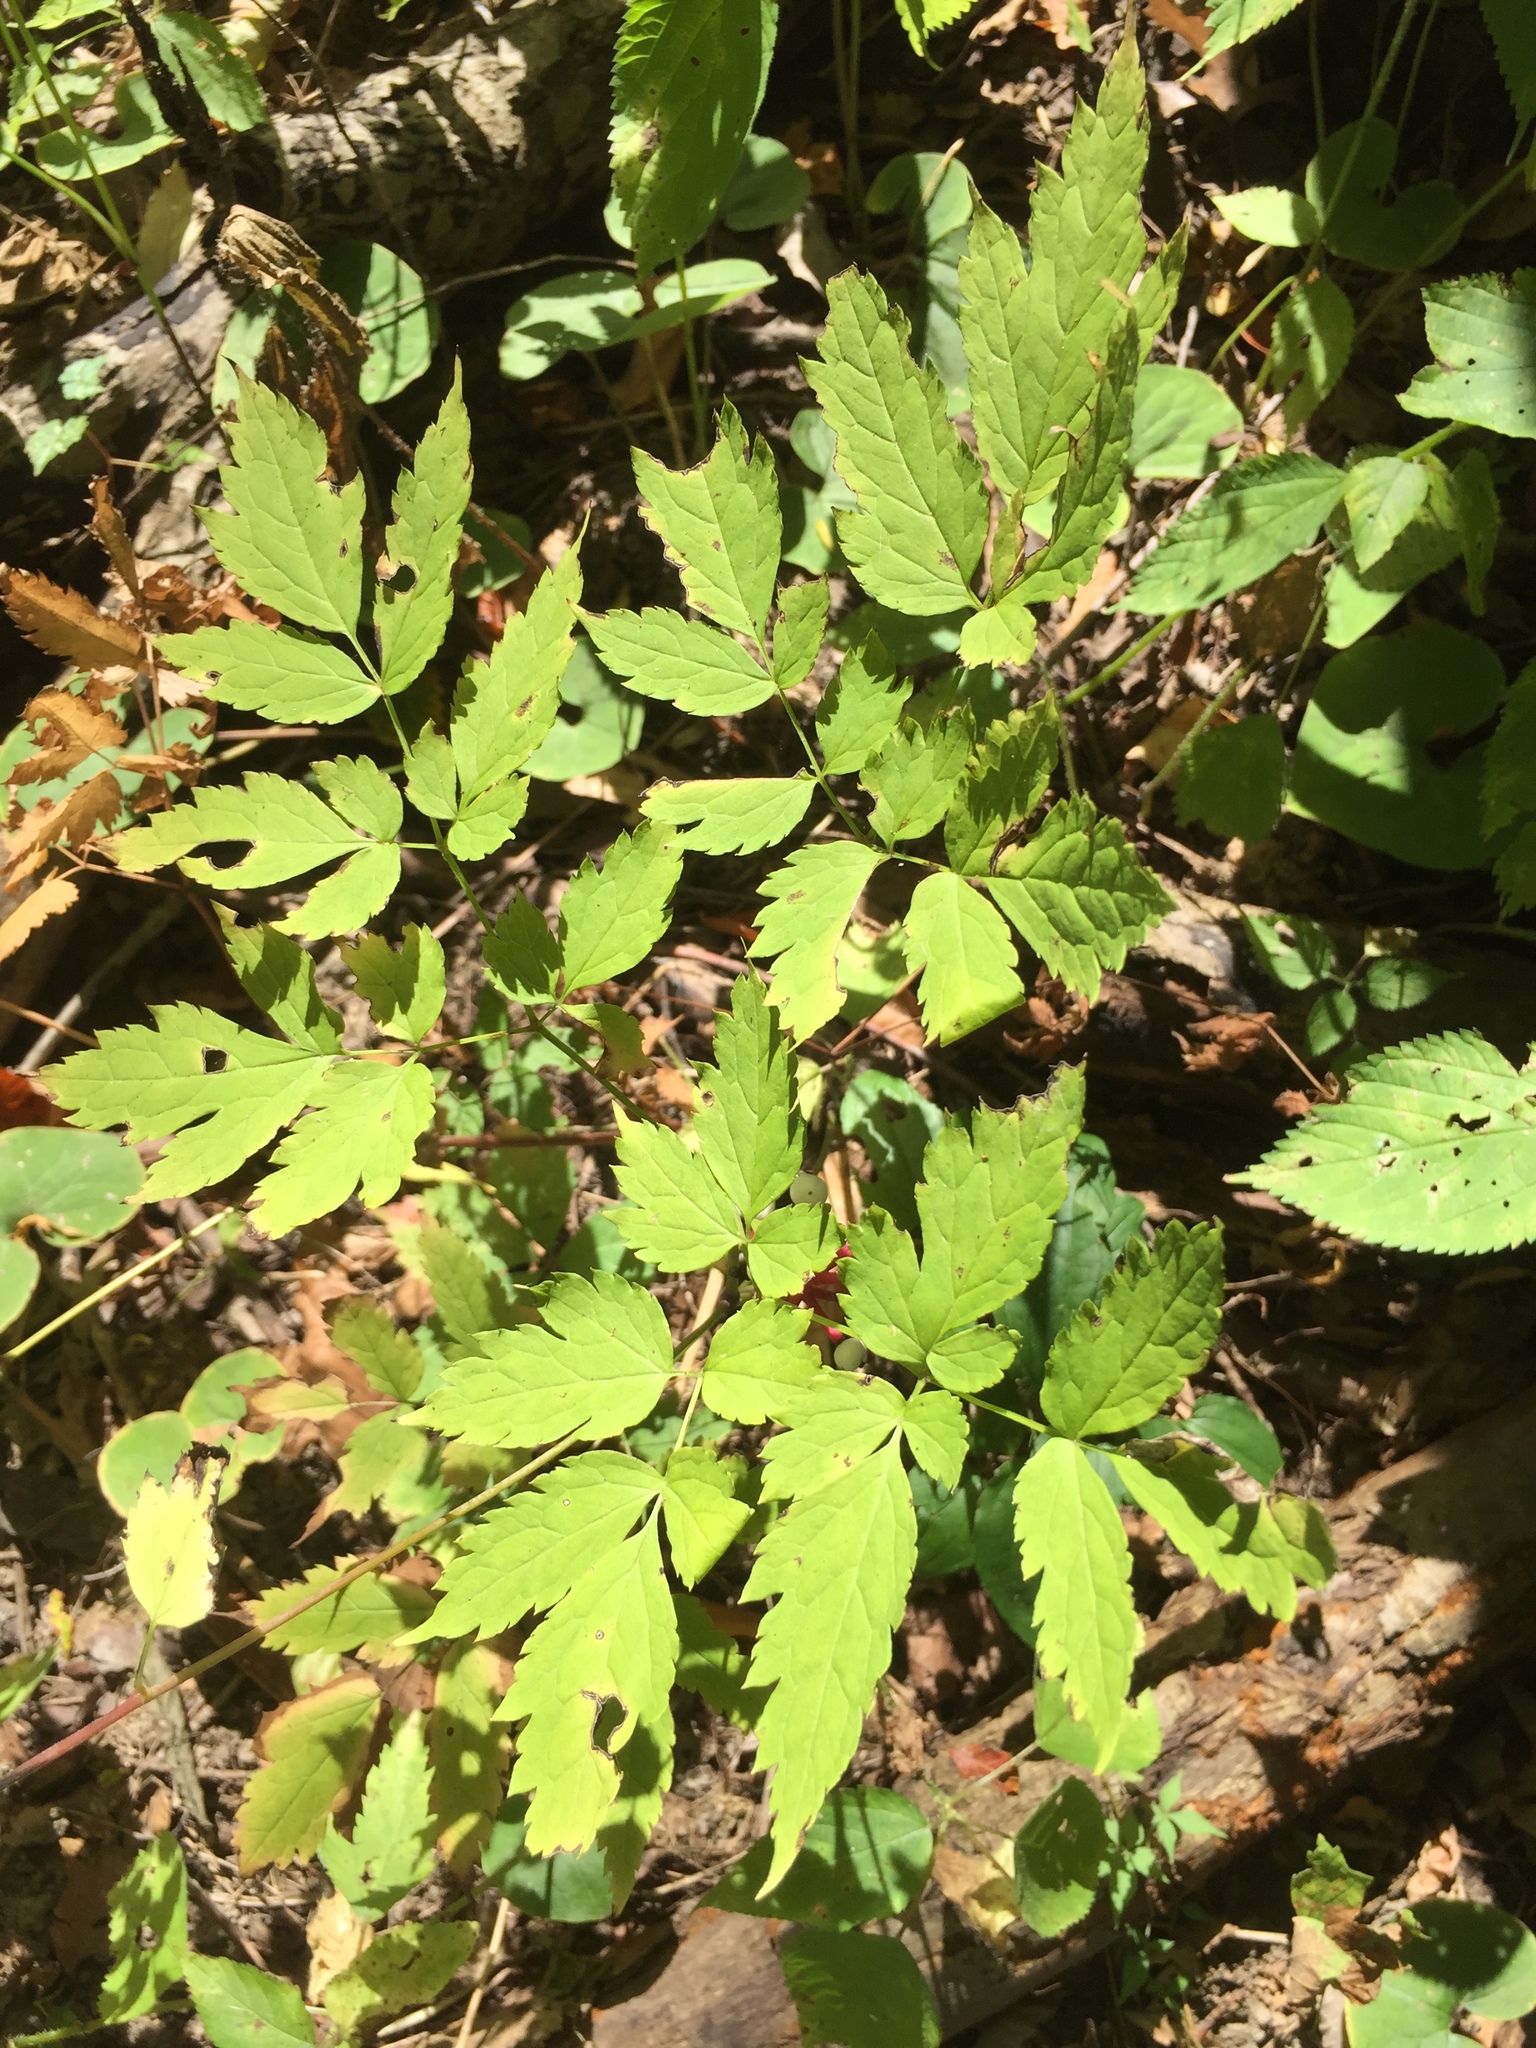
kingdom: Plantae
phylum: Tracheophyta
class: Magnoliopsida
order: Ranunculales
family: Ranunculaceae
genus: Actaea
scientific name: Actaea pachypoda
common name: Doll's-eyes
